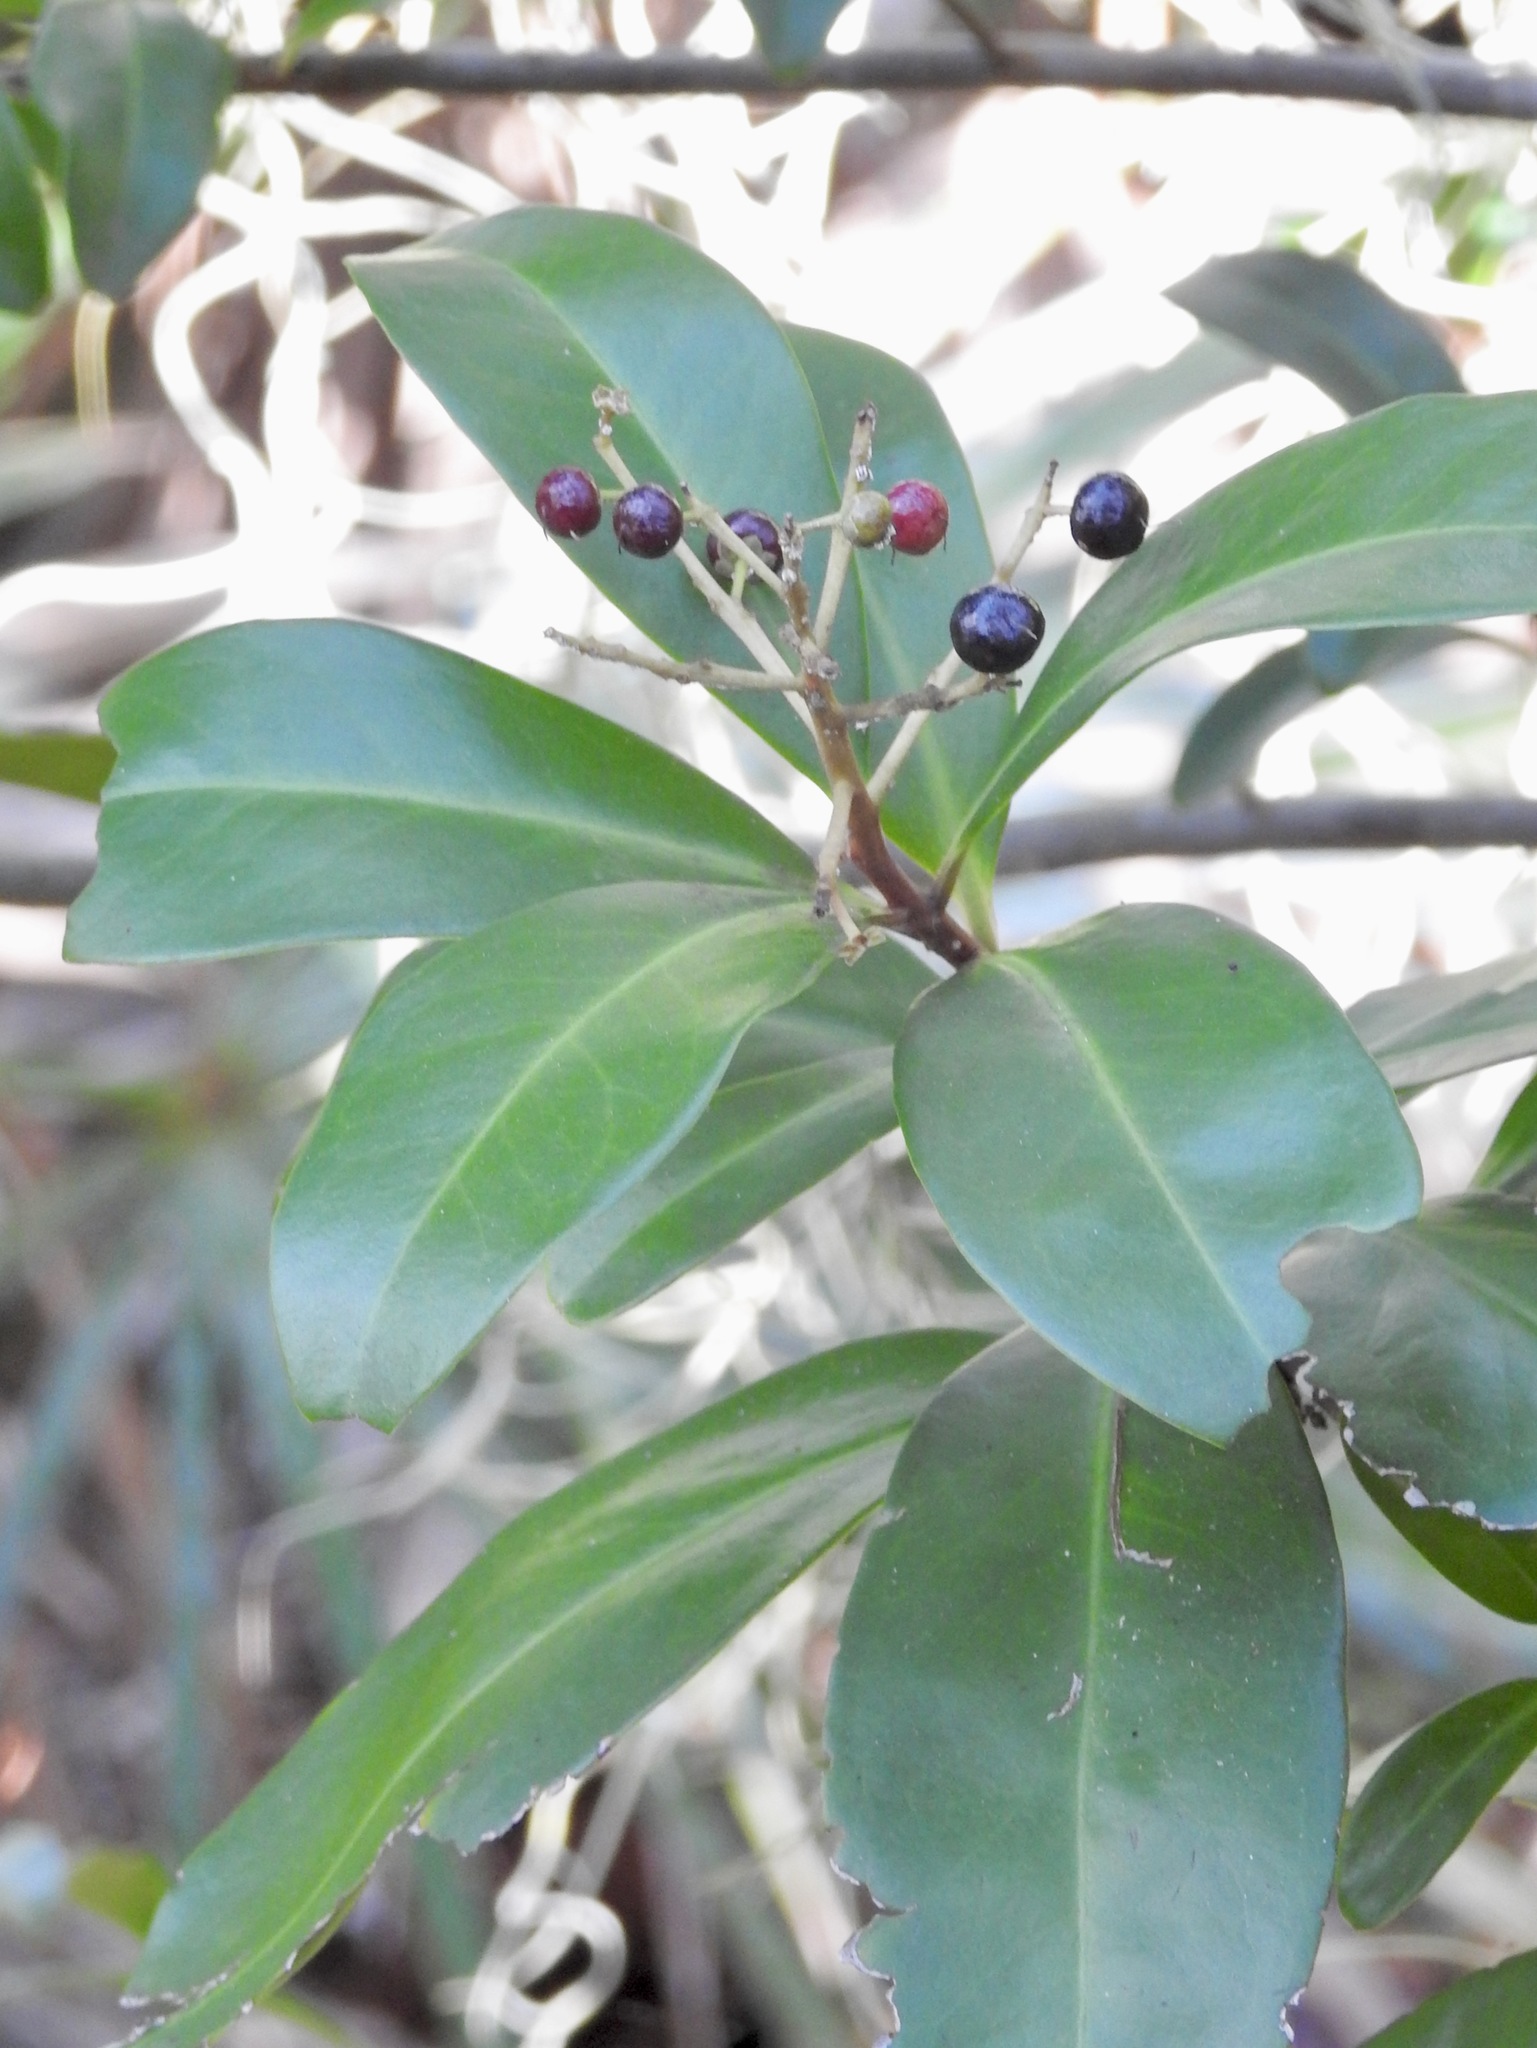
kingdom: Plantae
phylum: Tracheophyta
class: Magnoliopsida
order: Ericales
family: Primulaceae
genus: Ardisia
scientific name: Ardisia escallonioides
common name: Island marlberry
